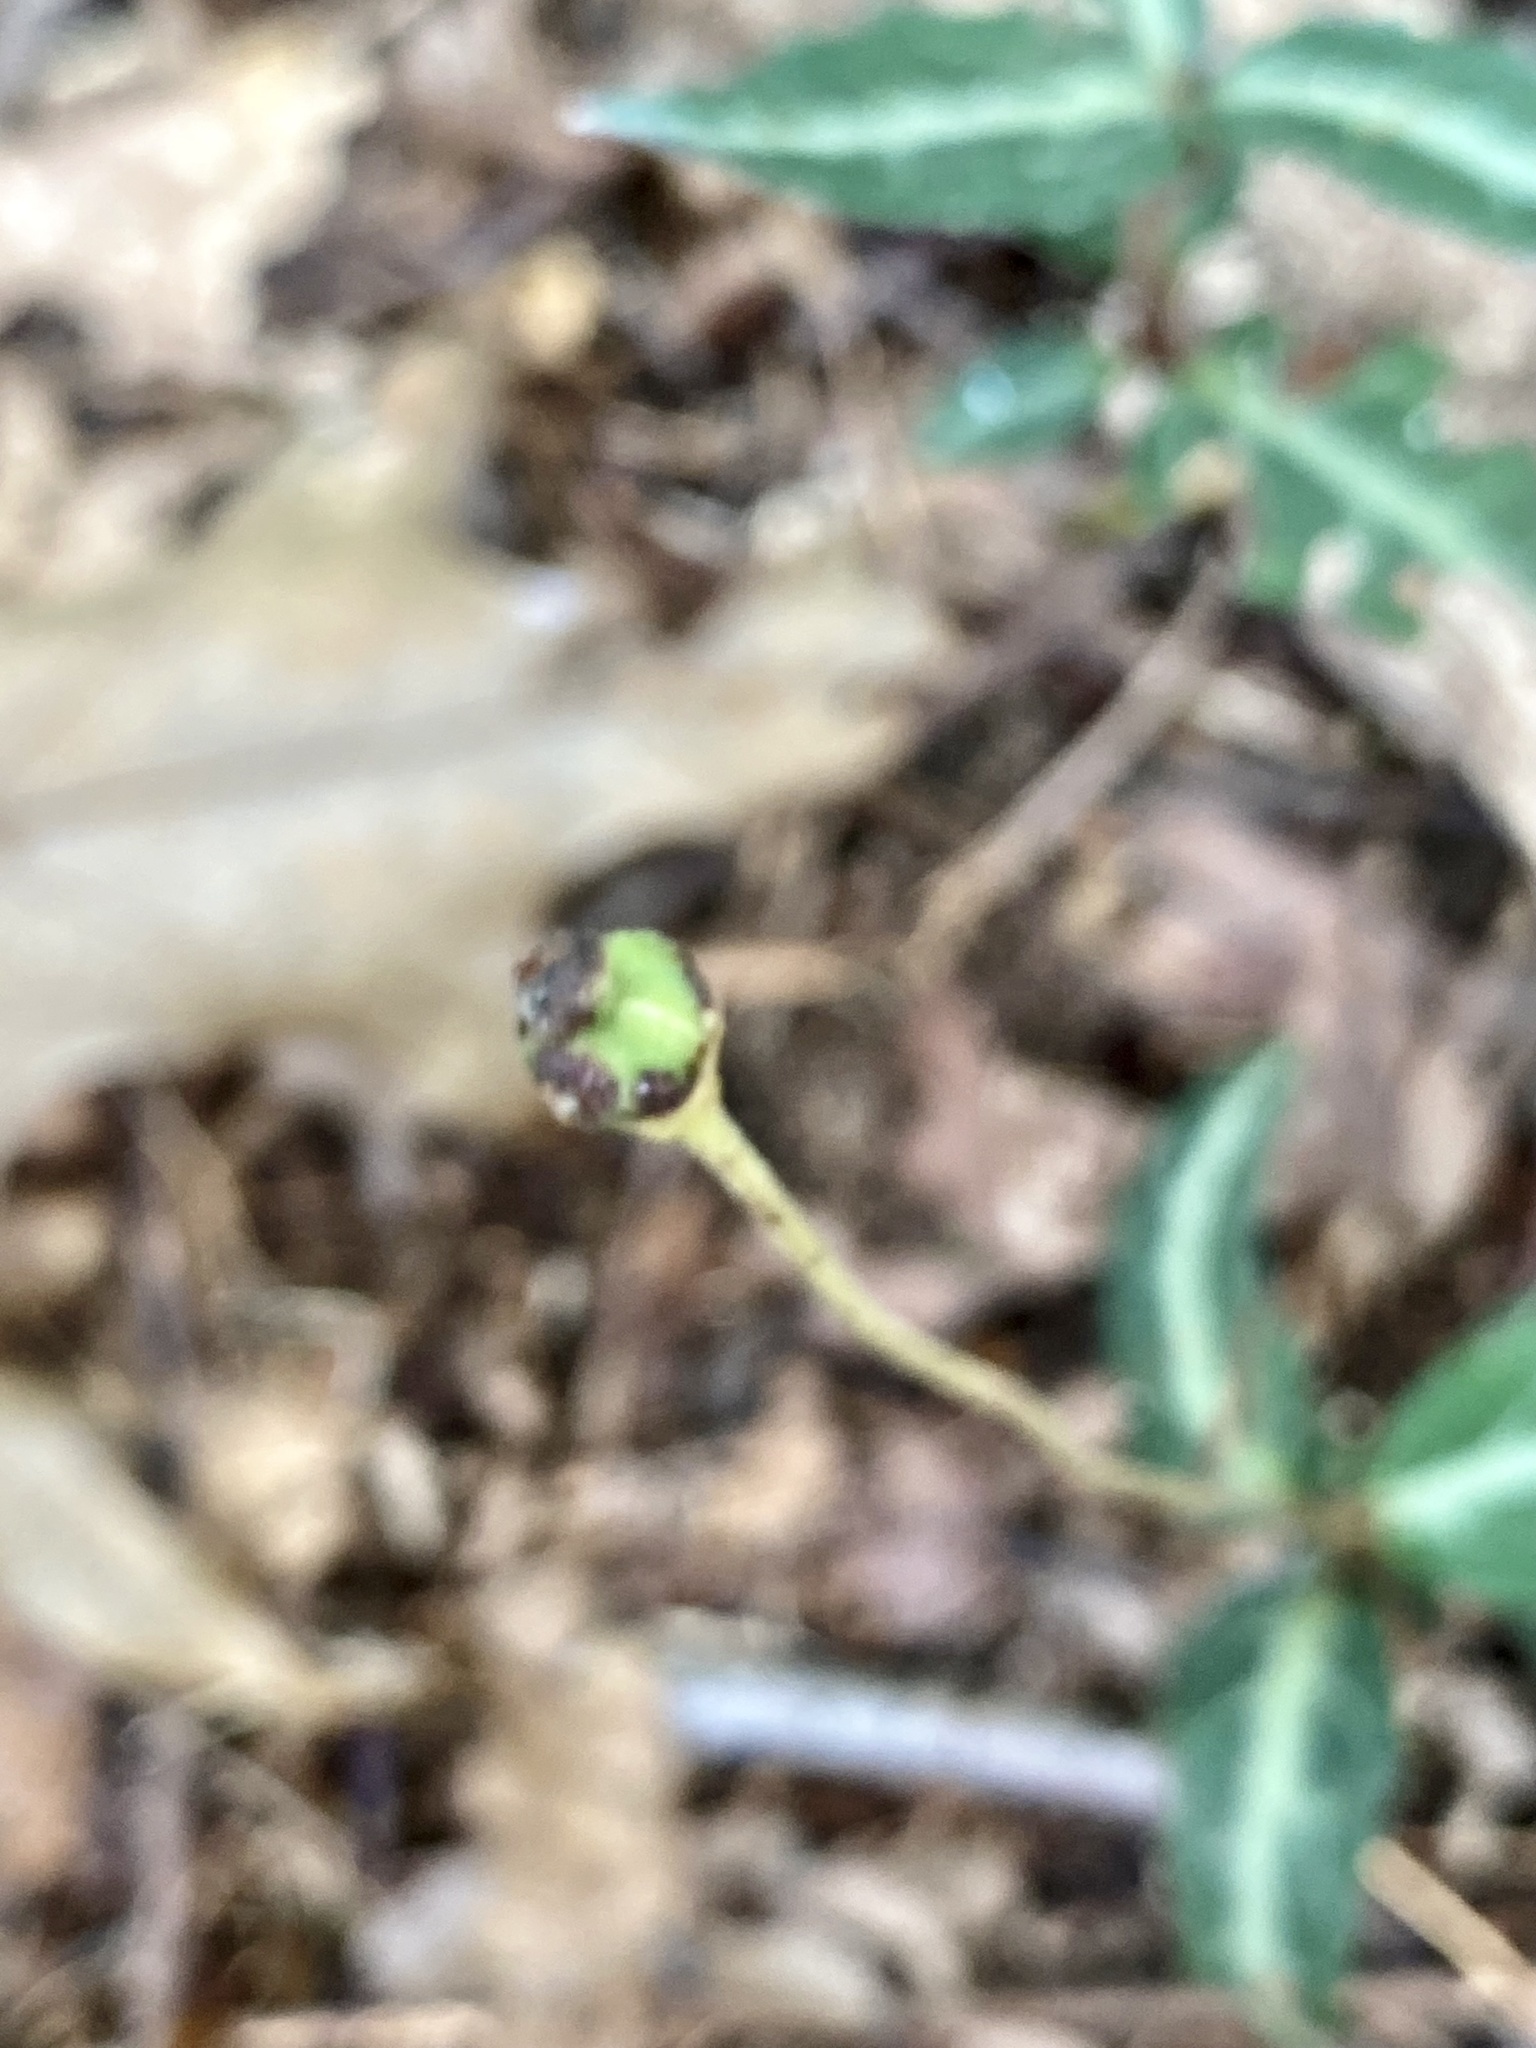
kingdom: Plantae
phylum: Tracheophyta
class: Magnoliopsida
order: Ericales
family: Ericaceae
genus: Chimaphila
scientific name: Chimaphila maculata
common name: Spotted pipsissewa
